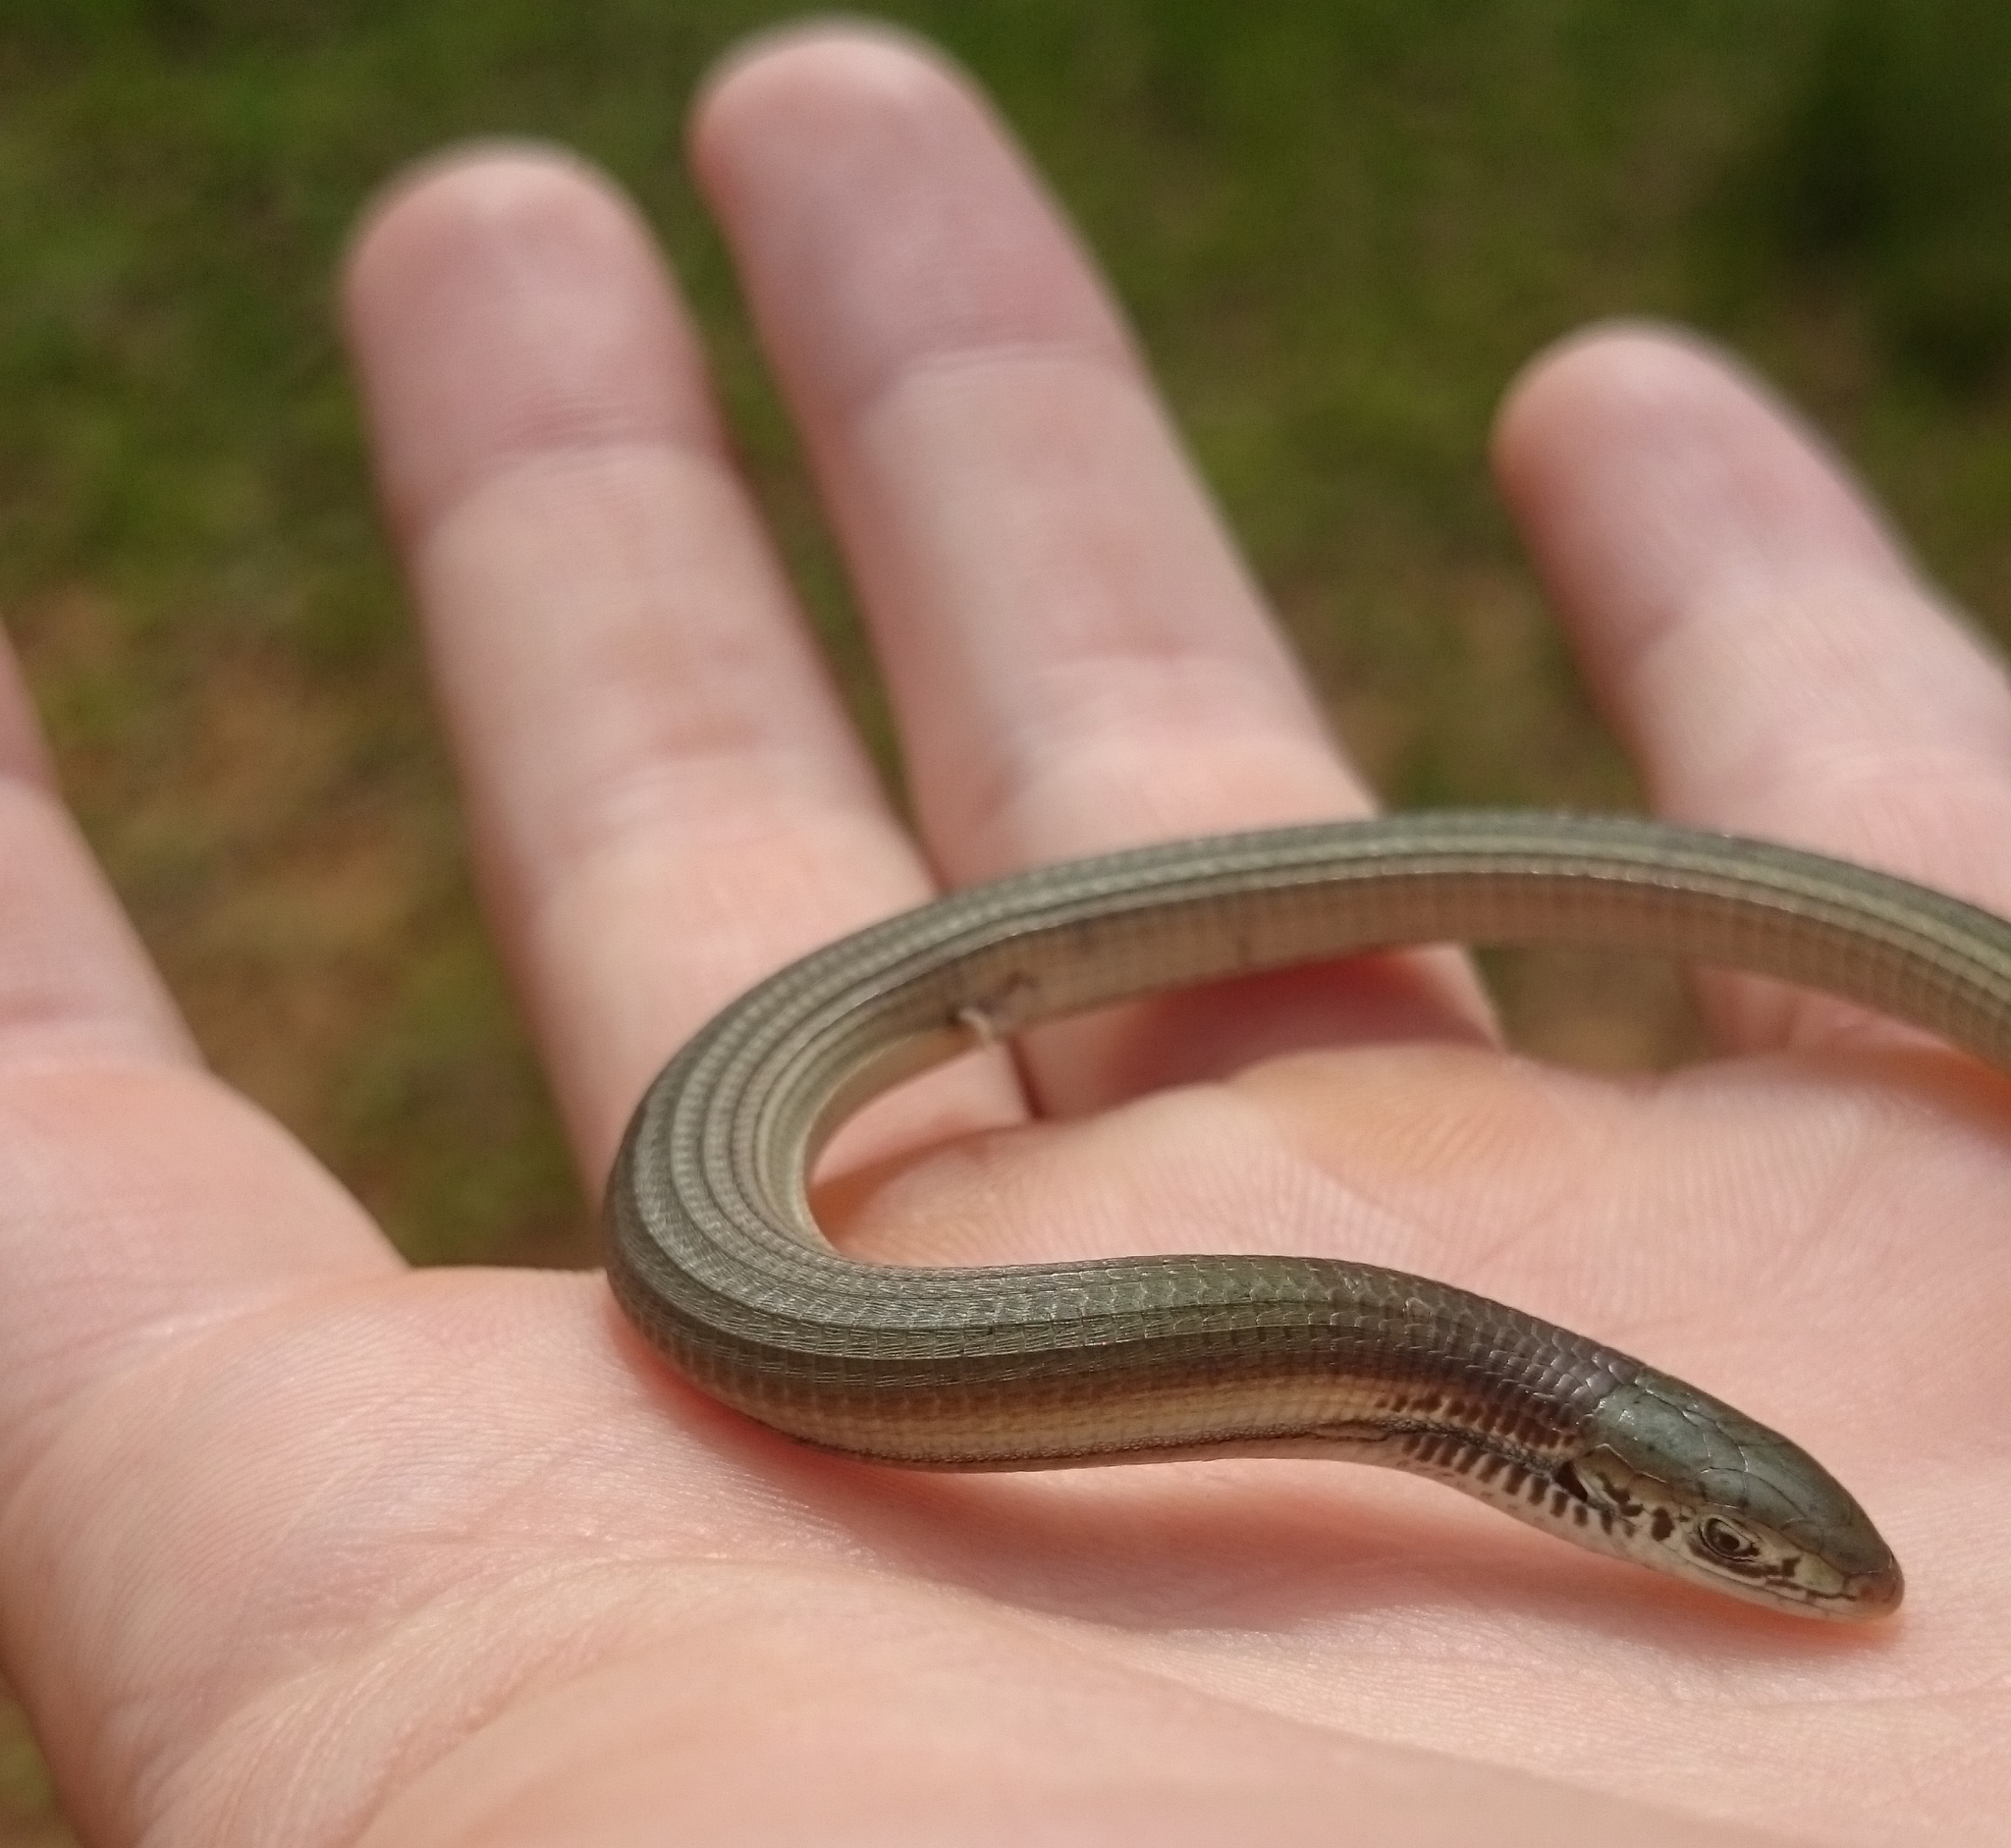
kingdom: Animalia
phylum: Chordata
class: Squamata
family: Gerrhosauridae
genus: Tetradactylus
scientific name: Tetradactylus africanus
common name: African whip lizard
